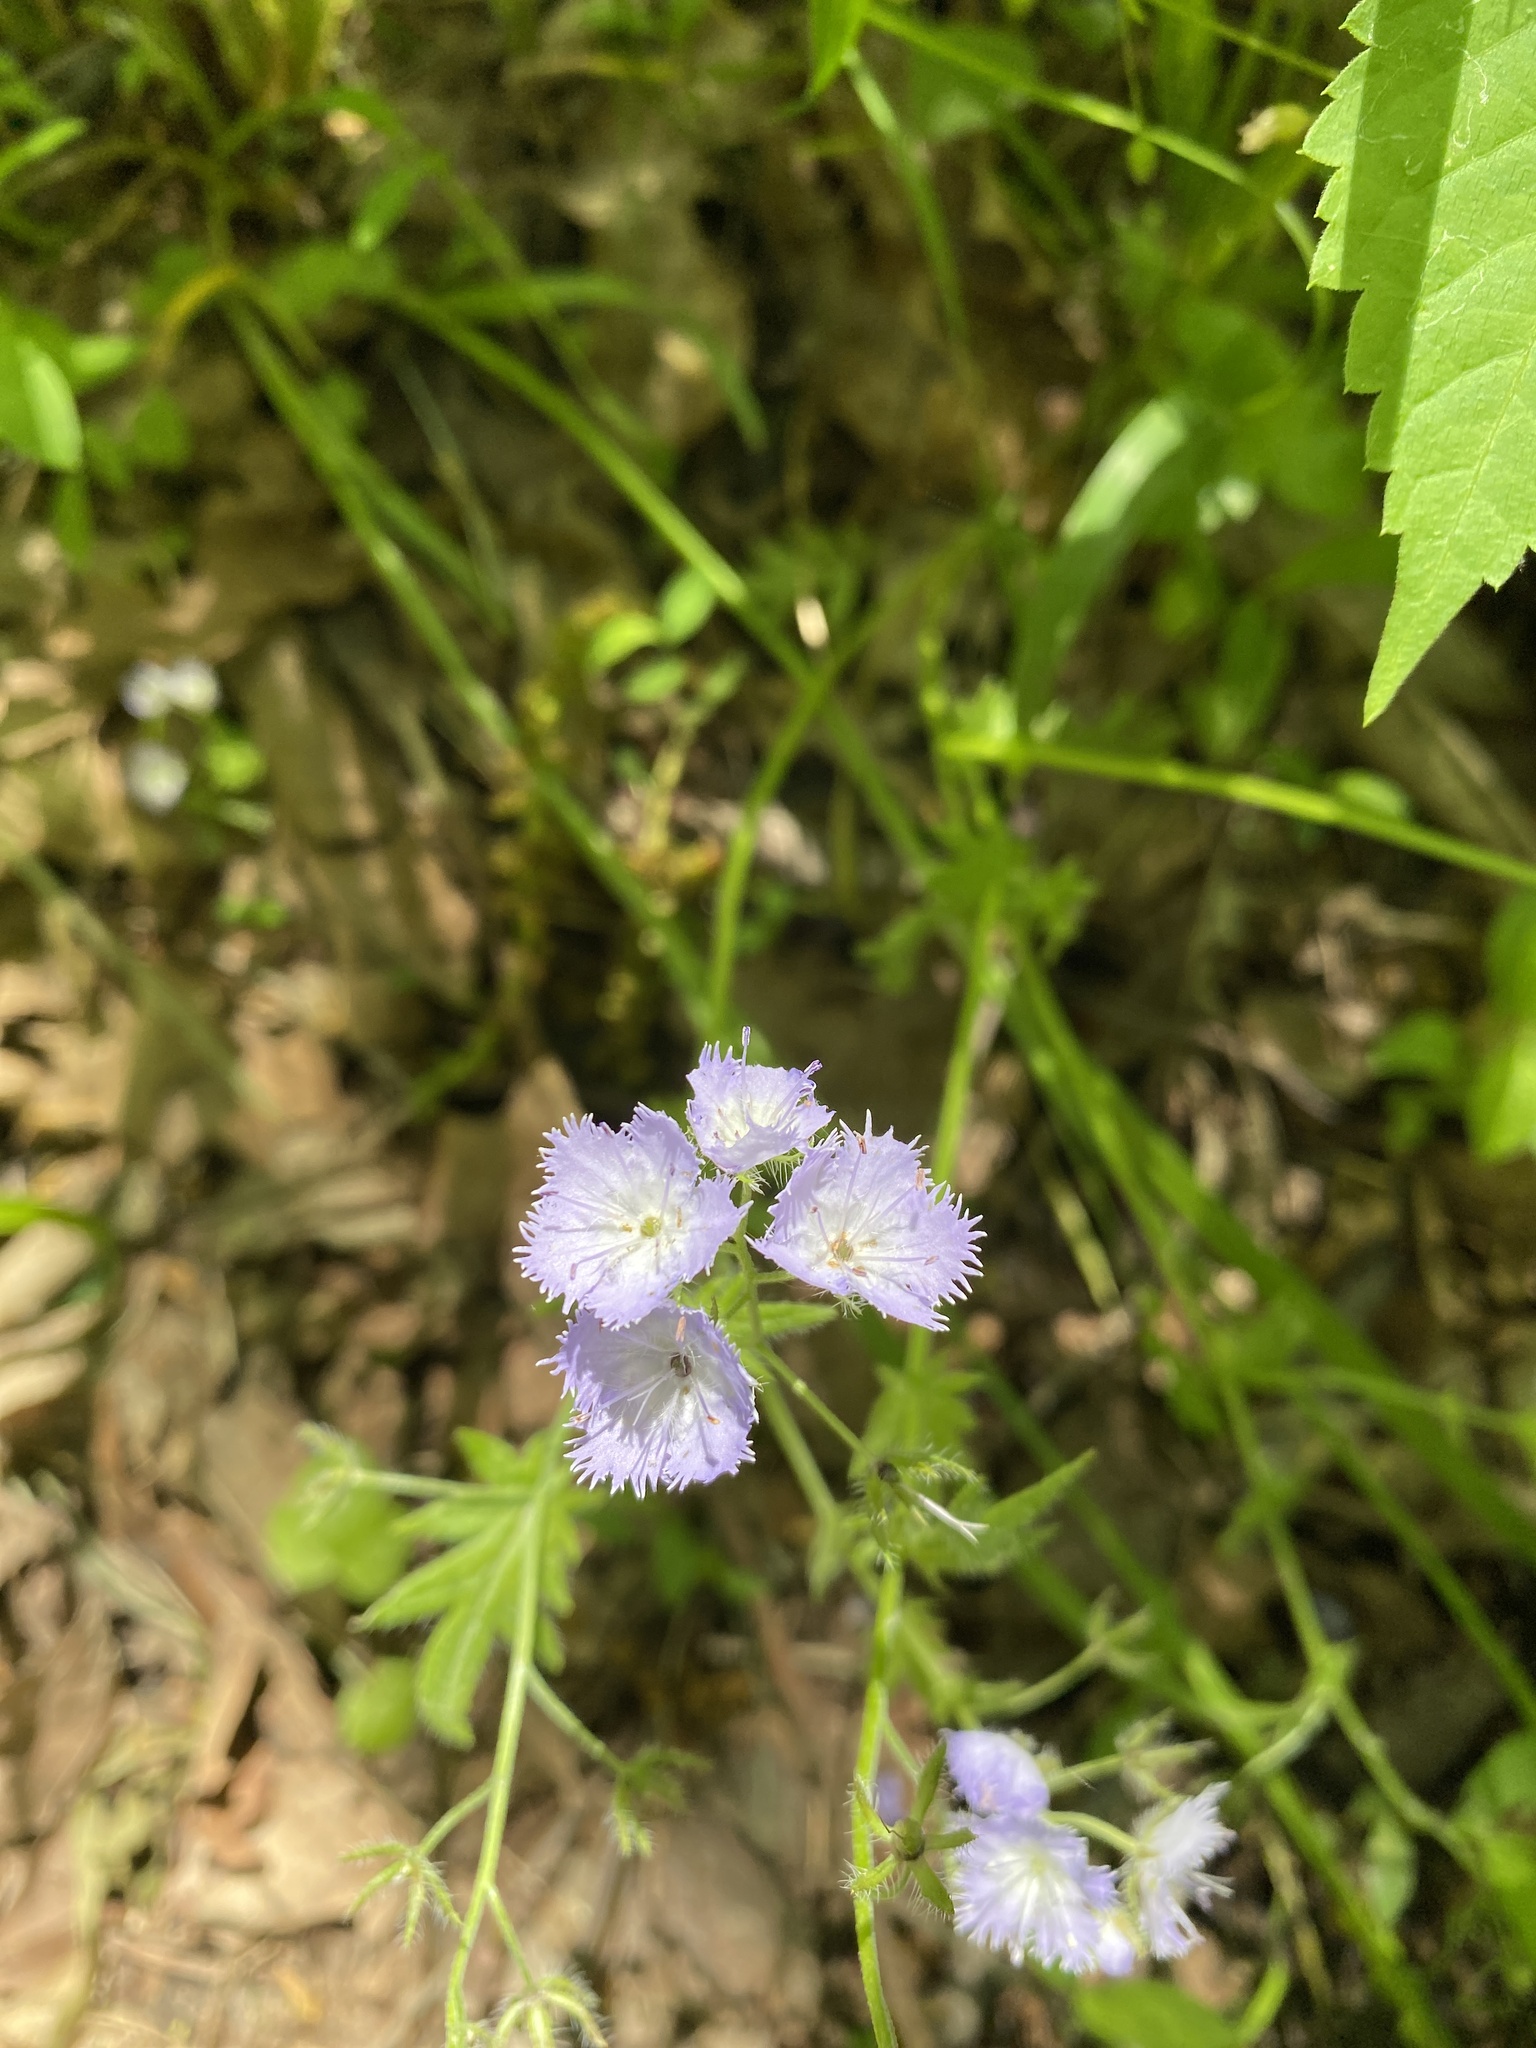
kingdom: Plantae
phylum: Tracheophyta
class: Magnoliopsida
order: Boraginales
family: Hydrophyllaceae
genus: Phacelia
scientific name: Phacelia purshii
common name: Miami-mist
